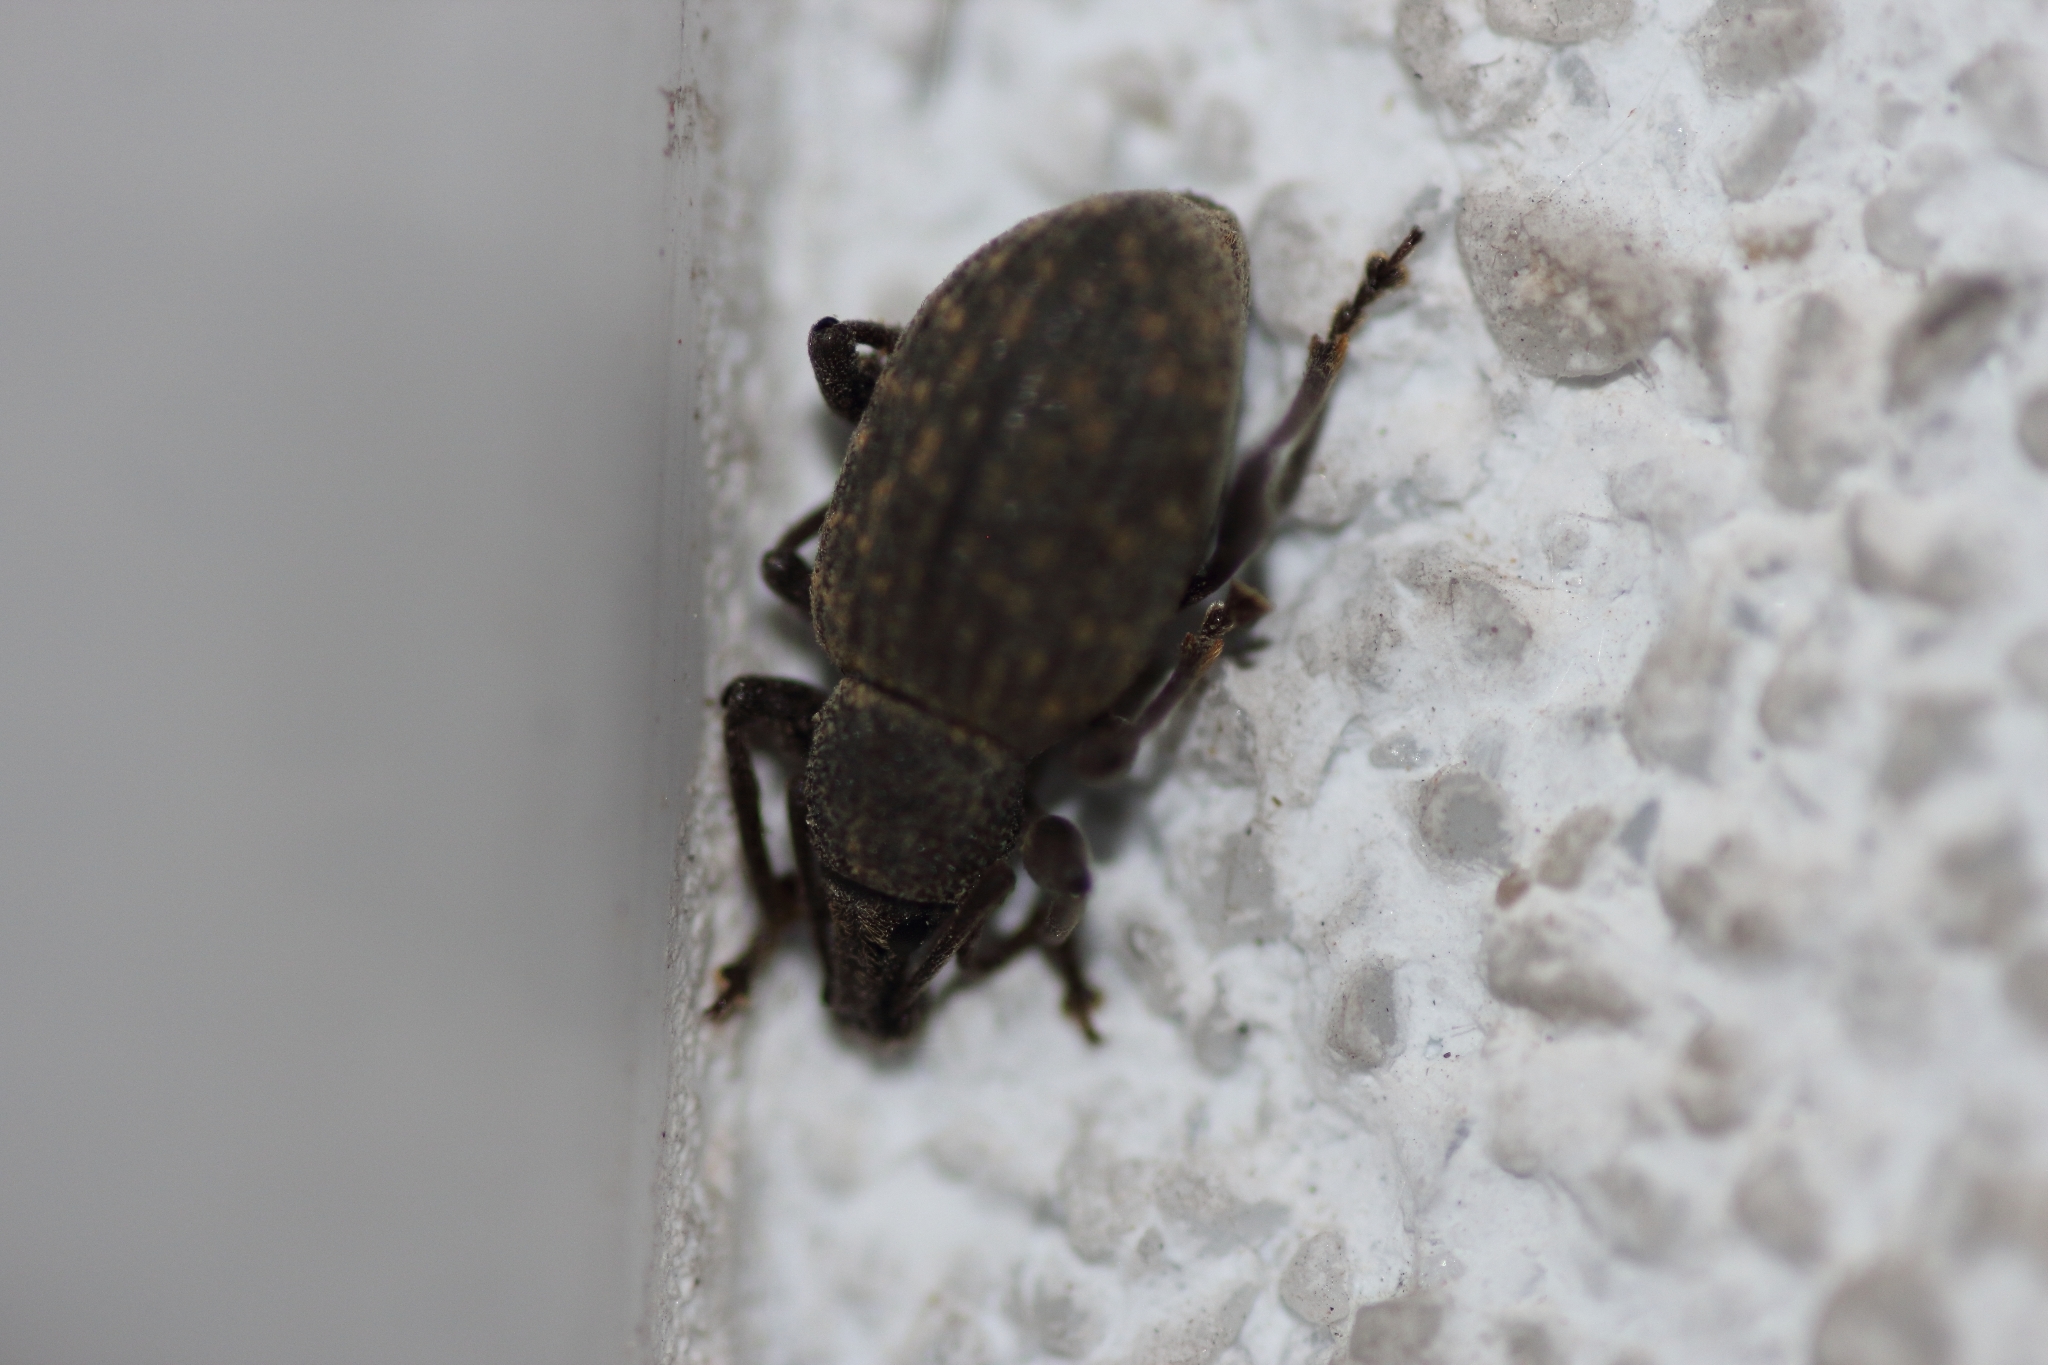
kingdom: Animalia
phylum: Arthropoda
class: Insecta
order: Coleoptera
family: Curculionidae
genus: Otiorhynchus
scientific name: Otiorhynchus sulcatus
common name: Black vine weevil
